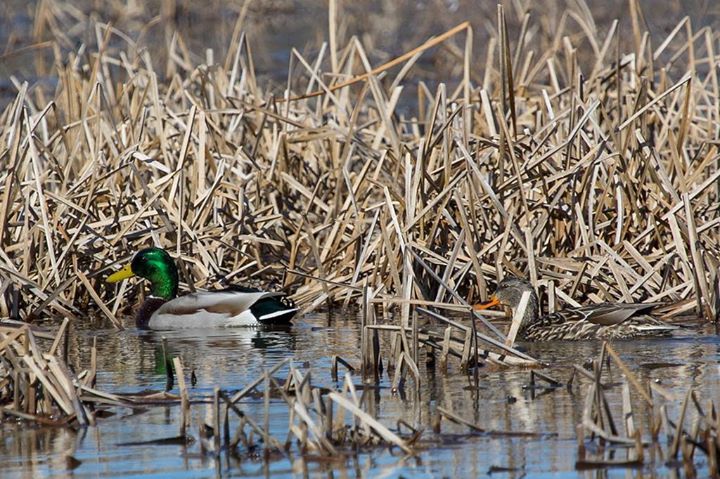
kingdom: Animalia
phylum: Chordata
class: Aves
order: Anseriformes
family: Anatidae
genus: Anas
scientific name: Anas platyrhynchos
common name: Mallard
